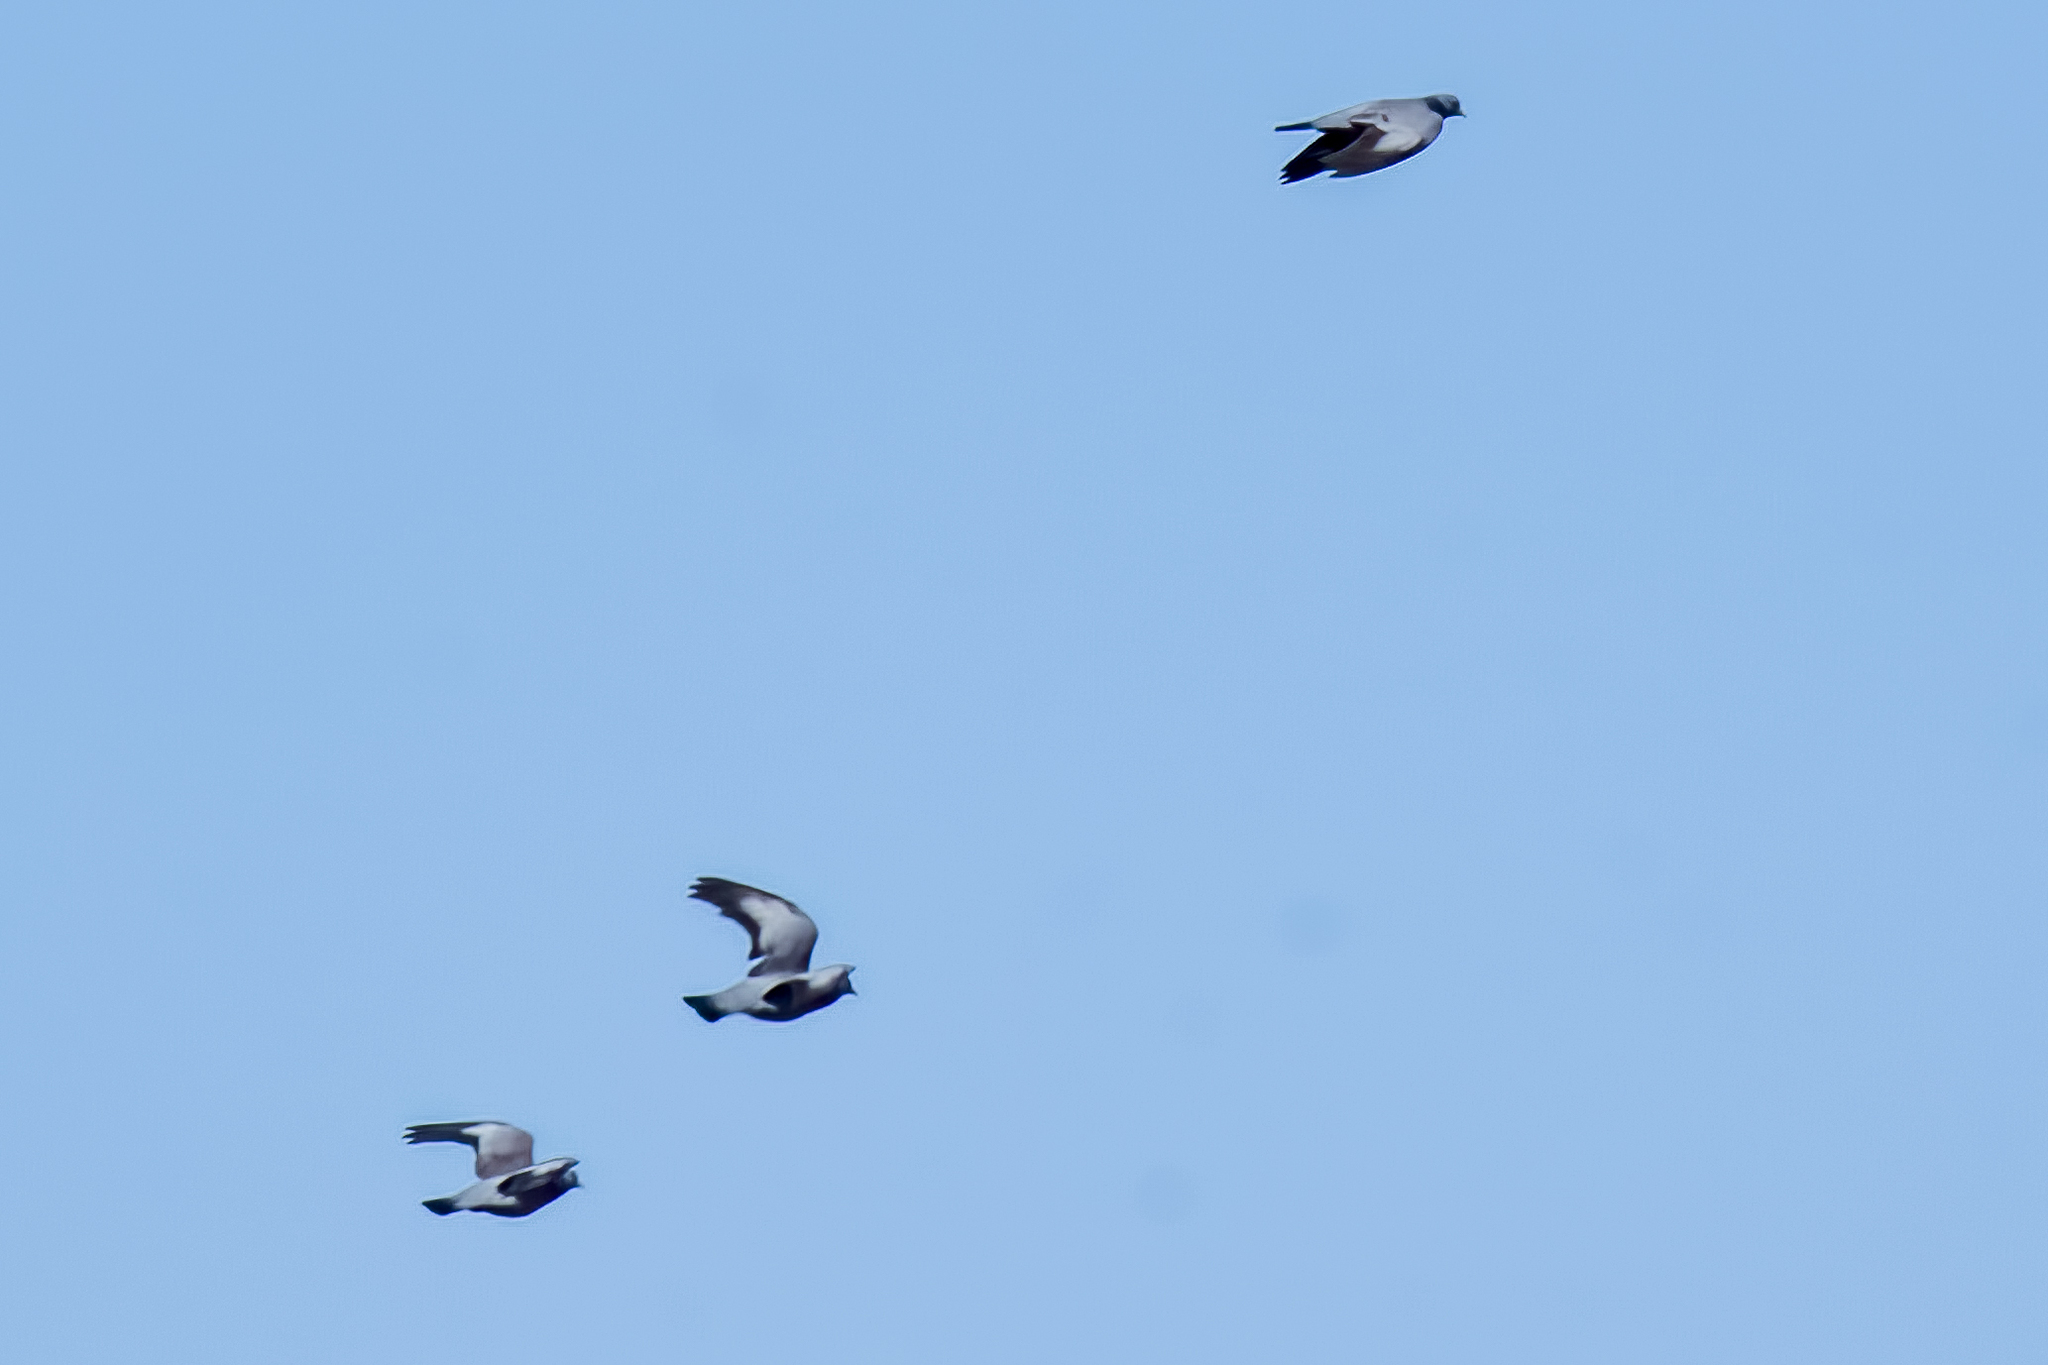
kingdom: Animalia
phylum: Chordata
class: Aves
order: Columbiformes
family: Columbidae
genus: Columba
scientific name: Columba oenas
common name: Stock dove
